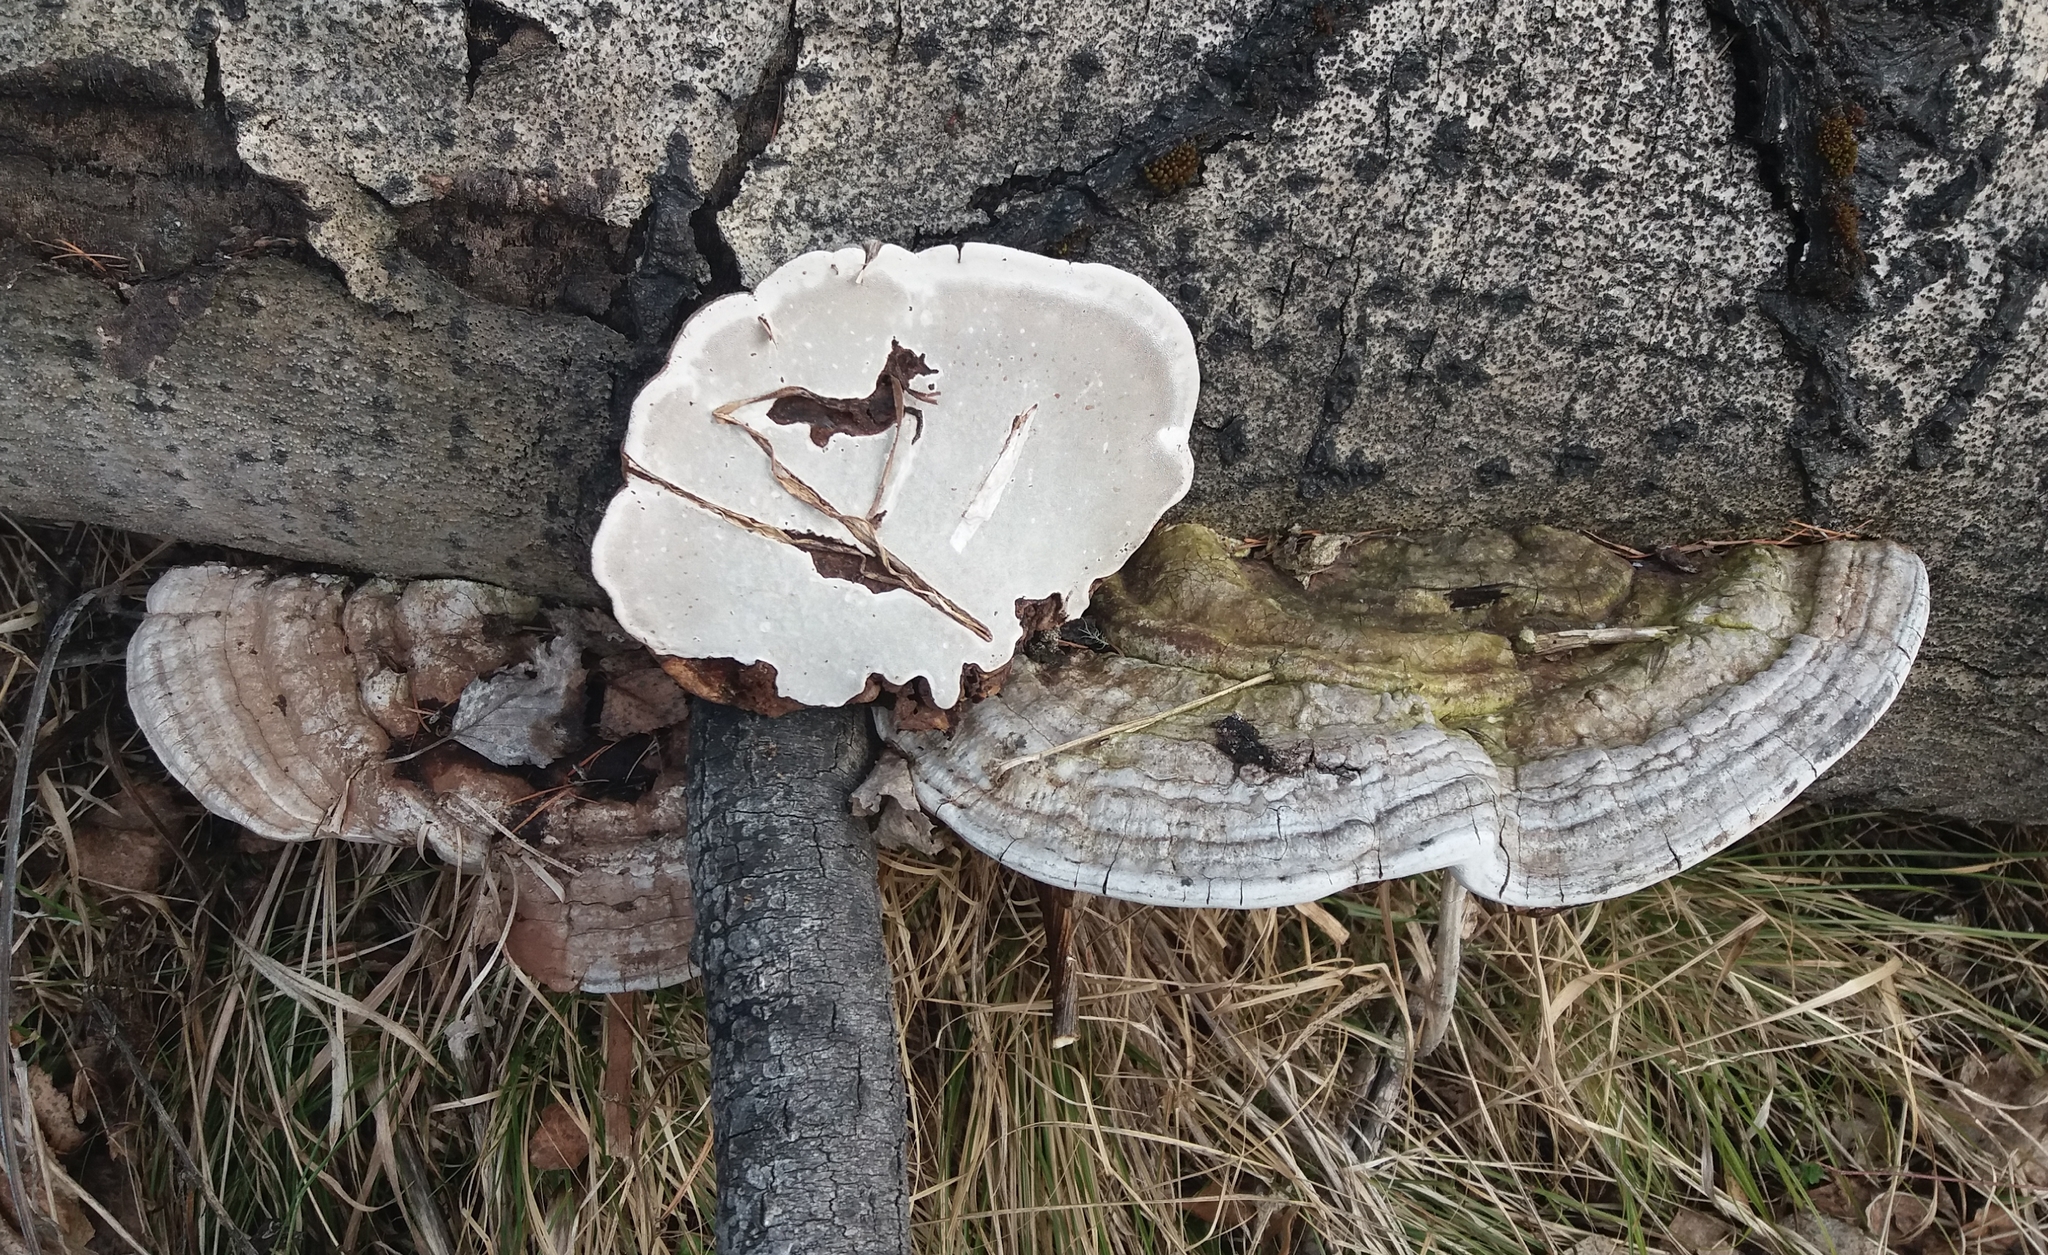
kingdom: Fungi
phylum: Basidiomycota
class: Agaricomycetes
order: Polyporales
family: Polyporaceae
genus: Ganoderma
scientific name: Ganoderma applanatum
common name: Artist's bracket
